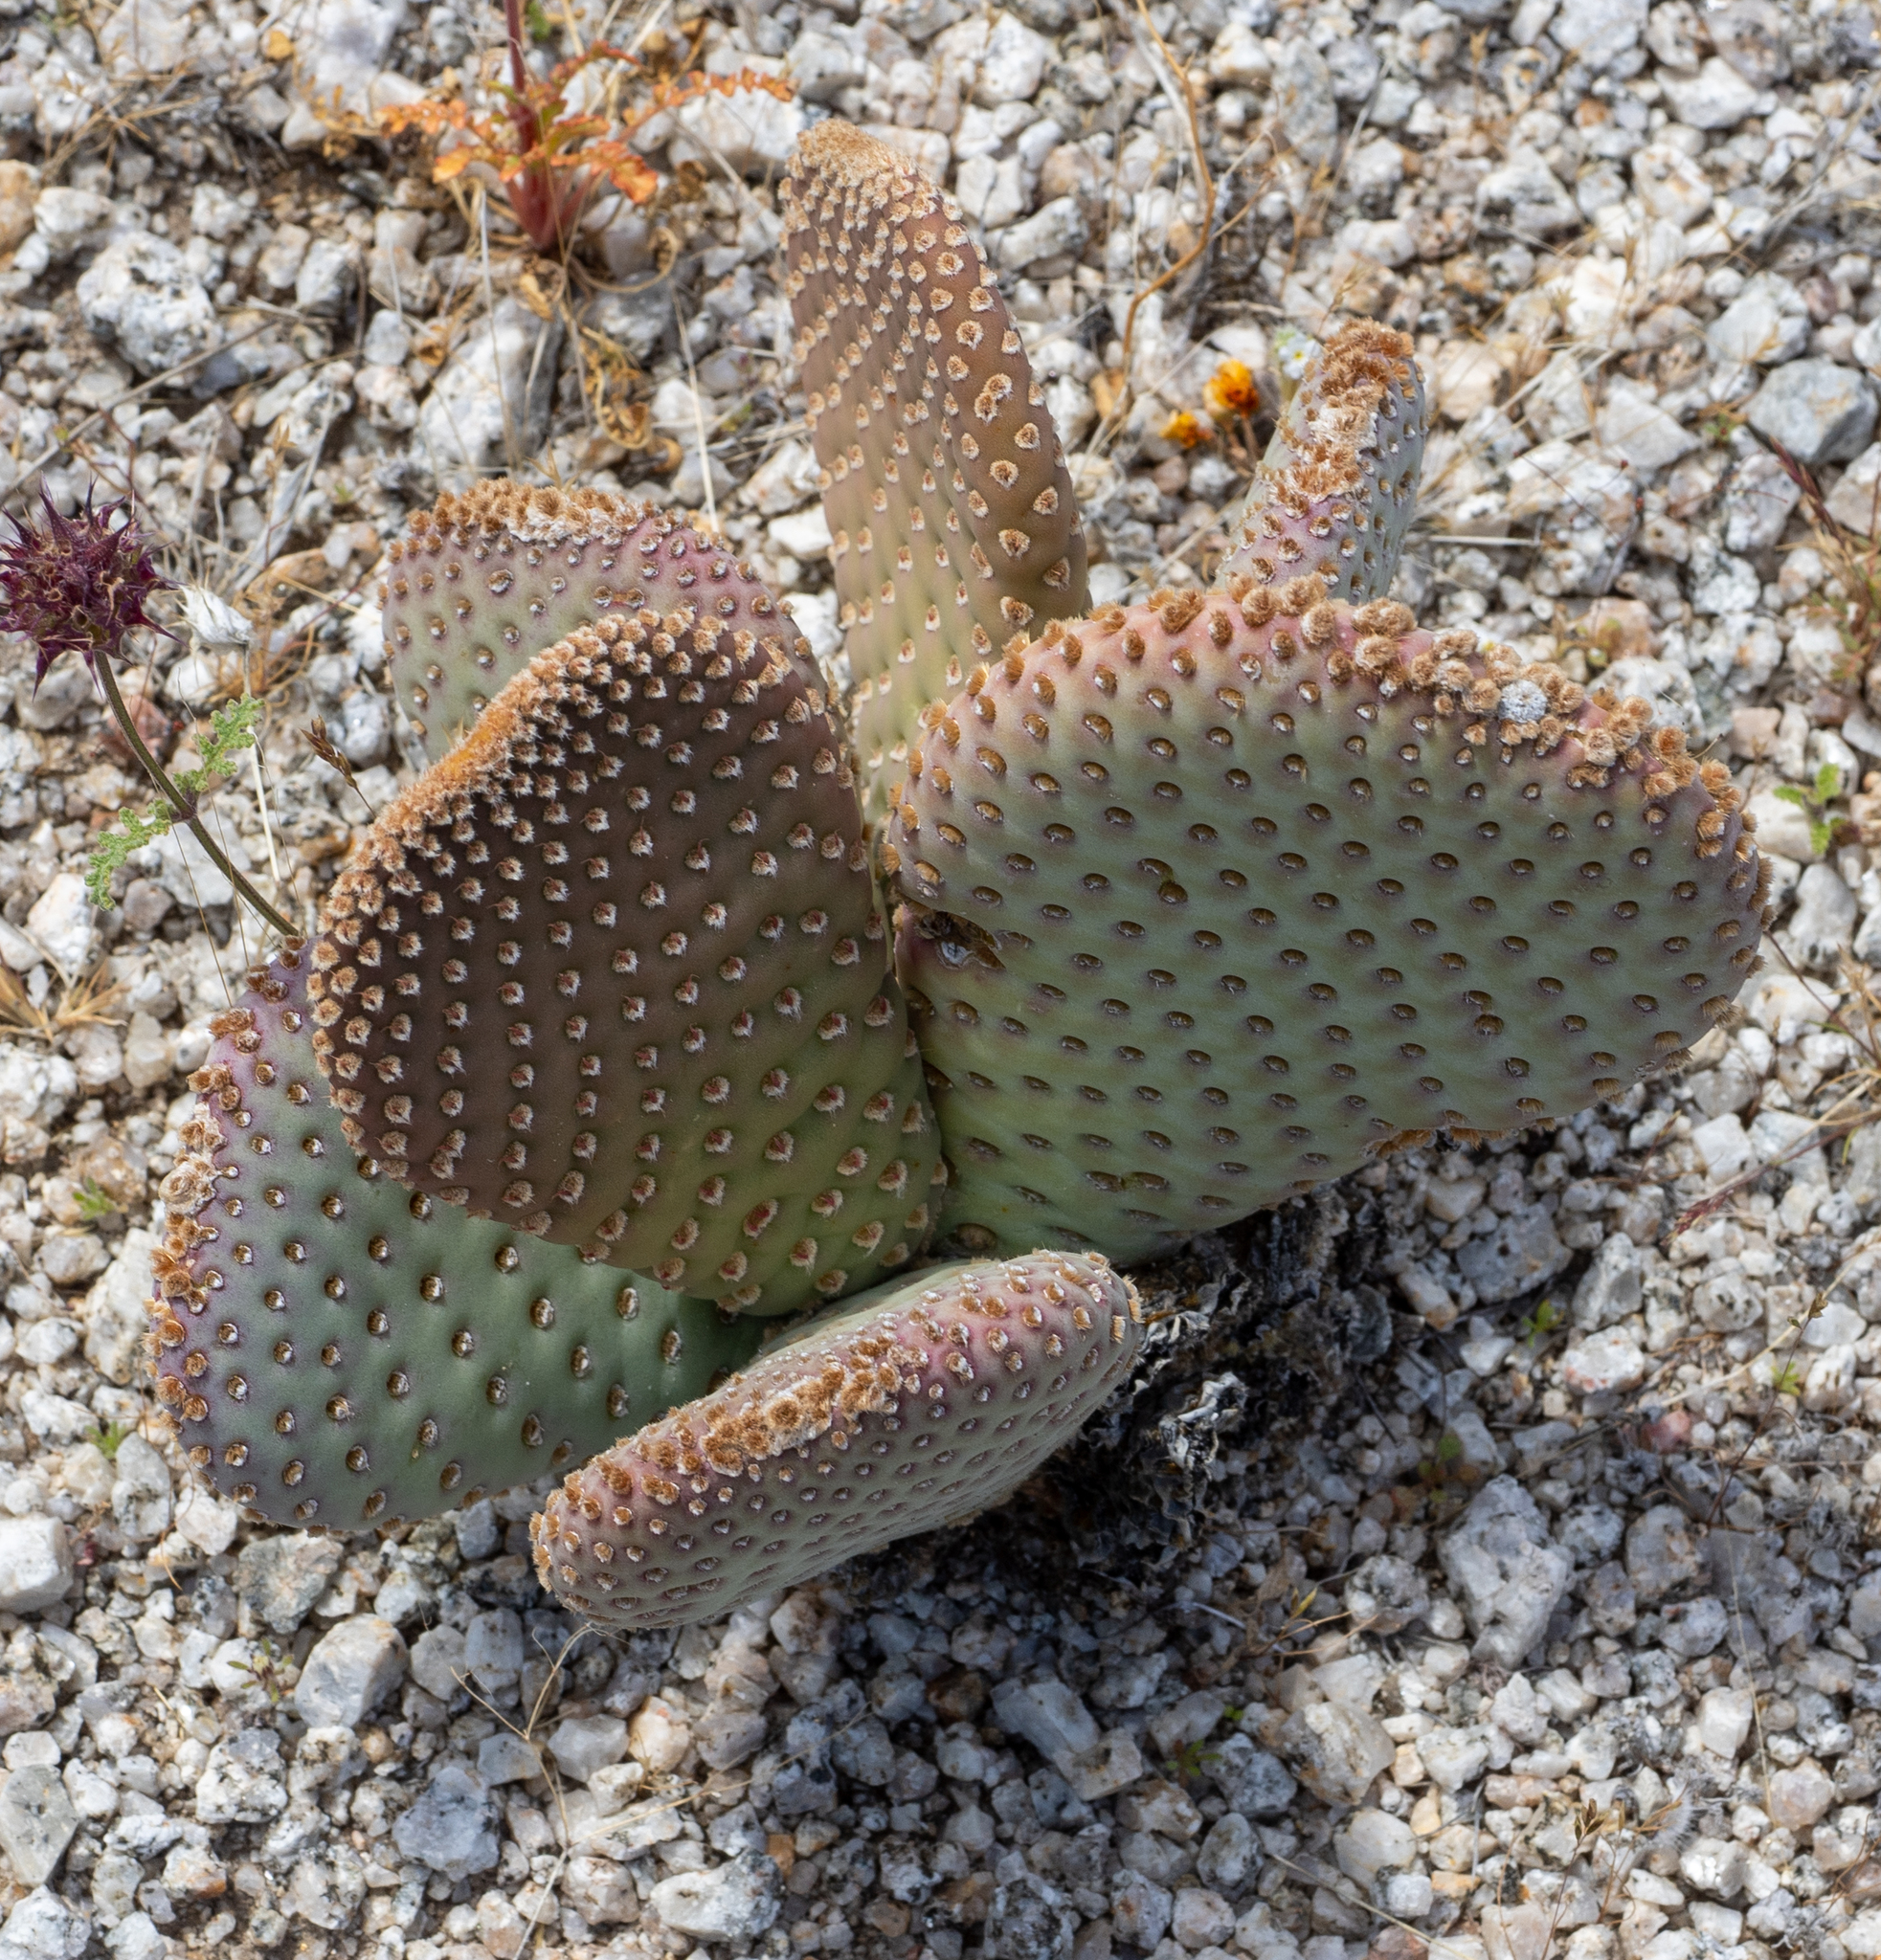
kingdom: Plantae
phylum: Tracheophyta
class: Magnoliopsida
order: Caryophyllales
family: Cactaceae
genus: Opuntia
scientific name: Opuntia basilaris
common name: Beavertail prickly-pear
